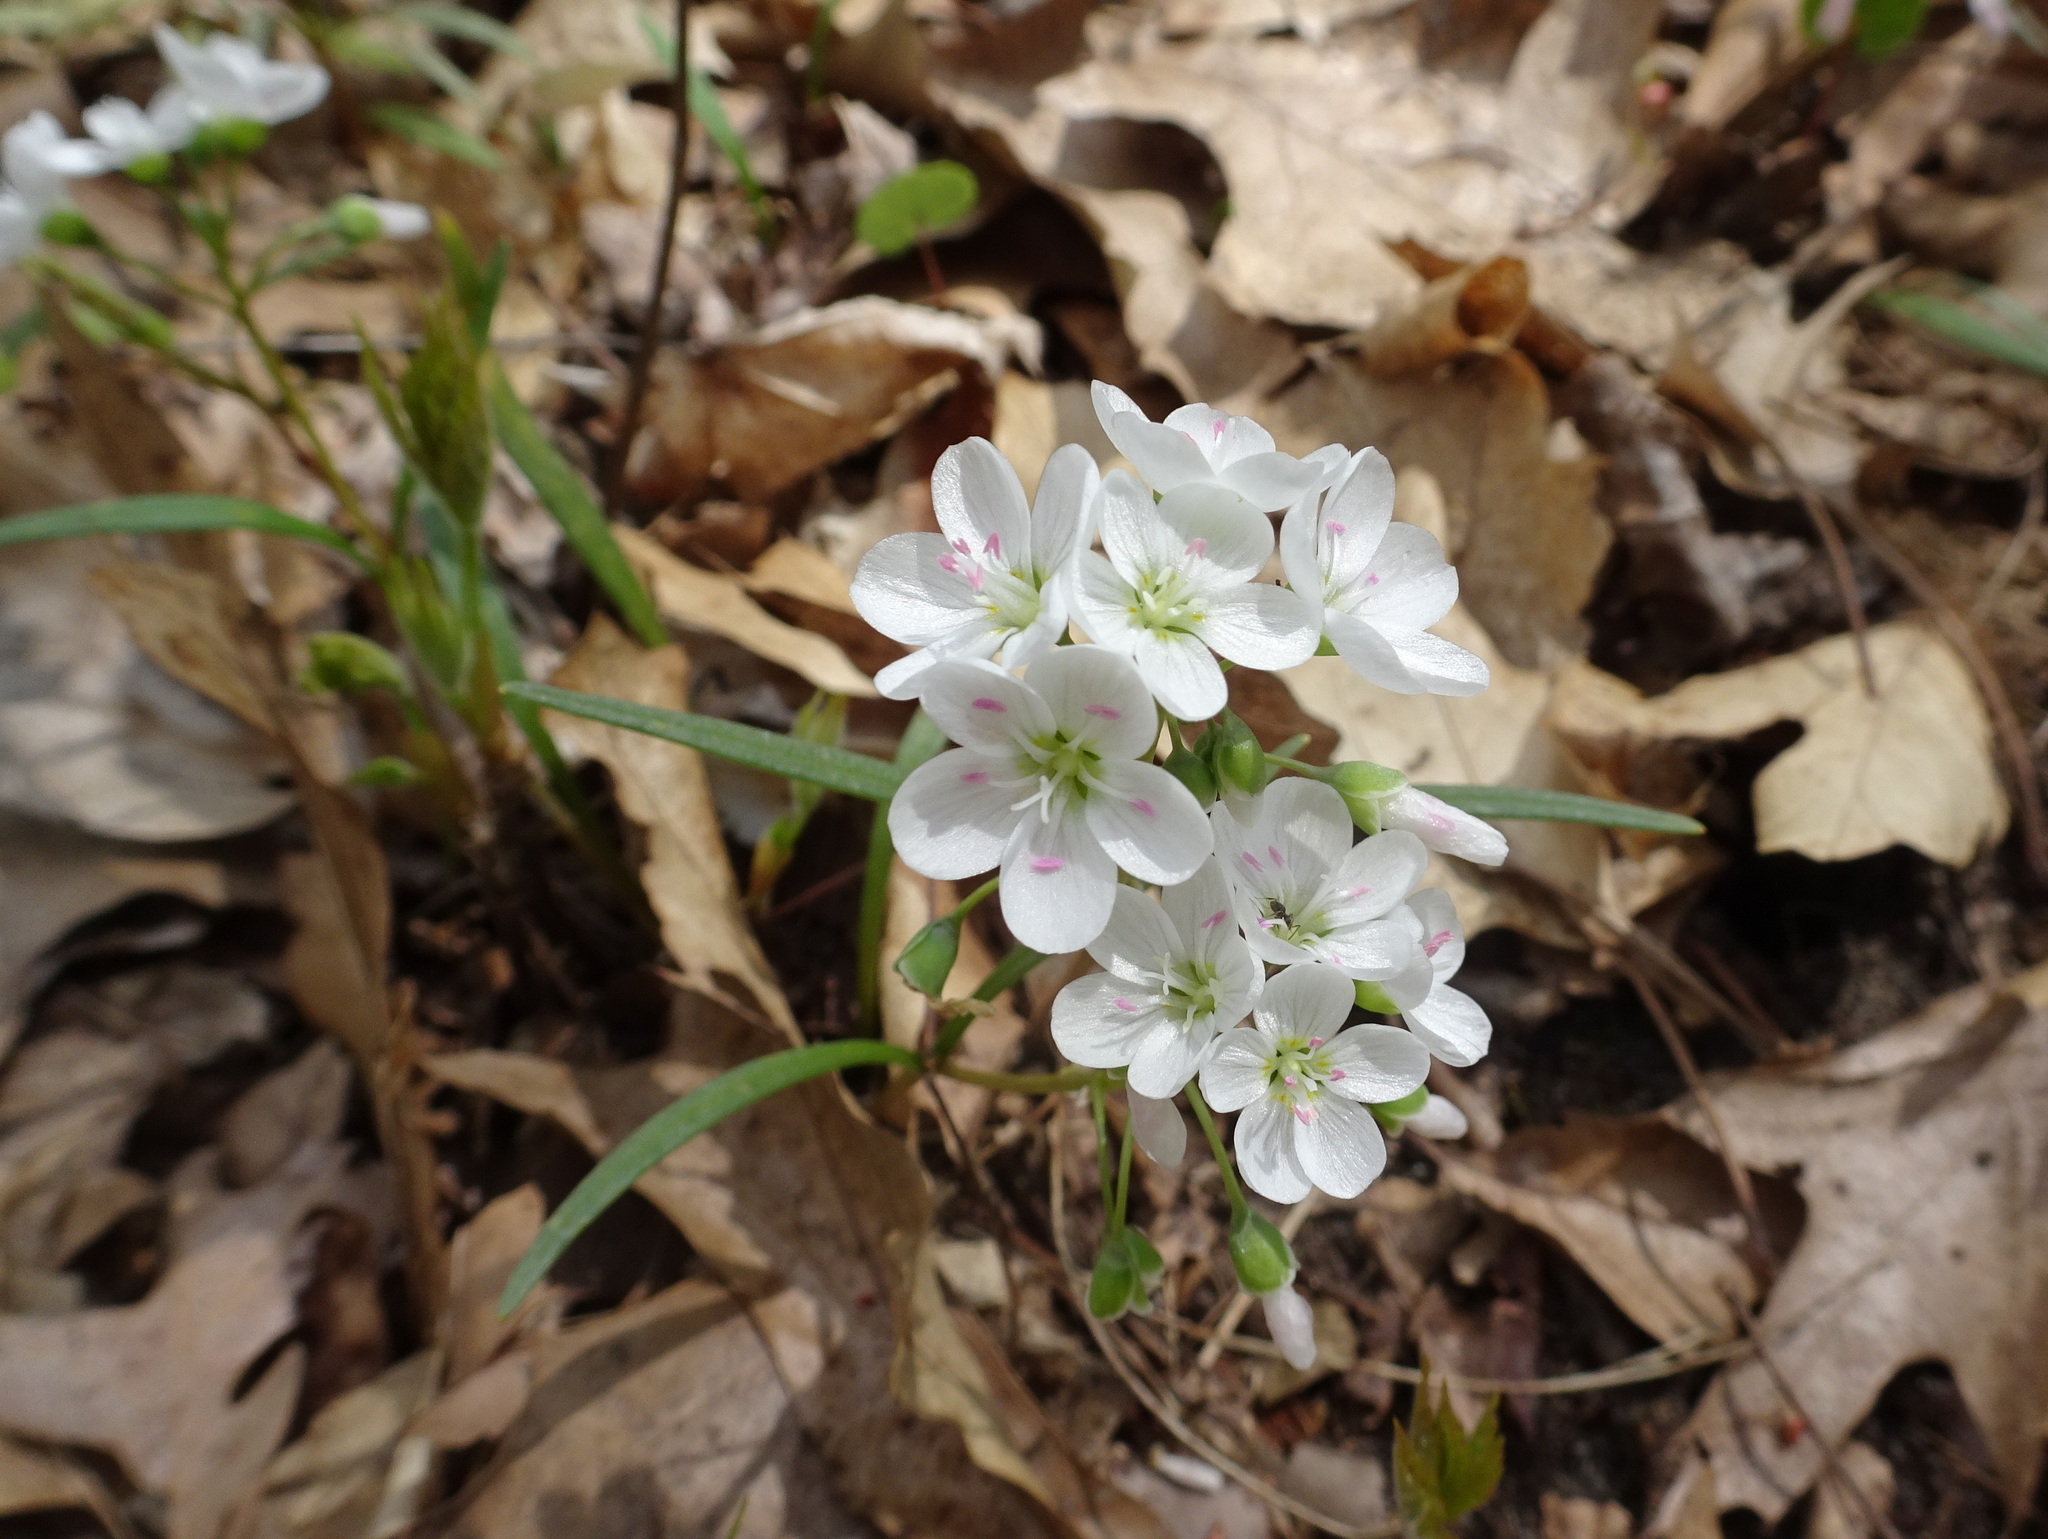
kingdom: Plantae
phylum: Tracheophyta
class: Magnoliopsida
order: Caryophyllales
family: Montiaceae
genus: Claytonia
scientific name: Claytonia virginica
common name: Virginia springbeauty
